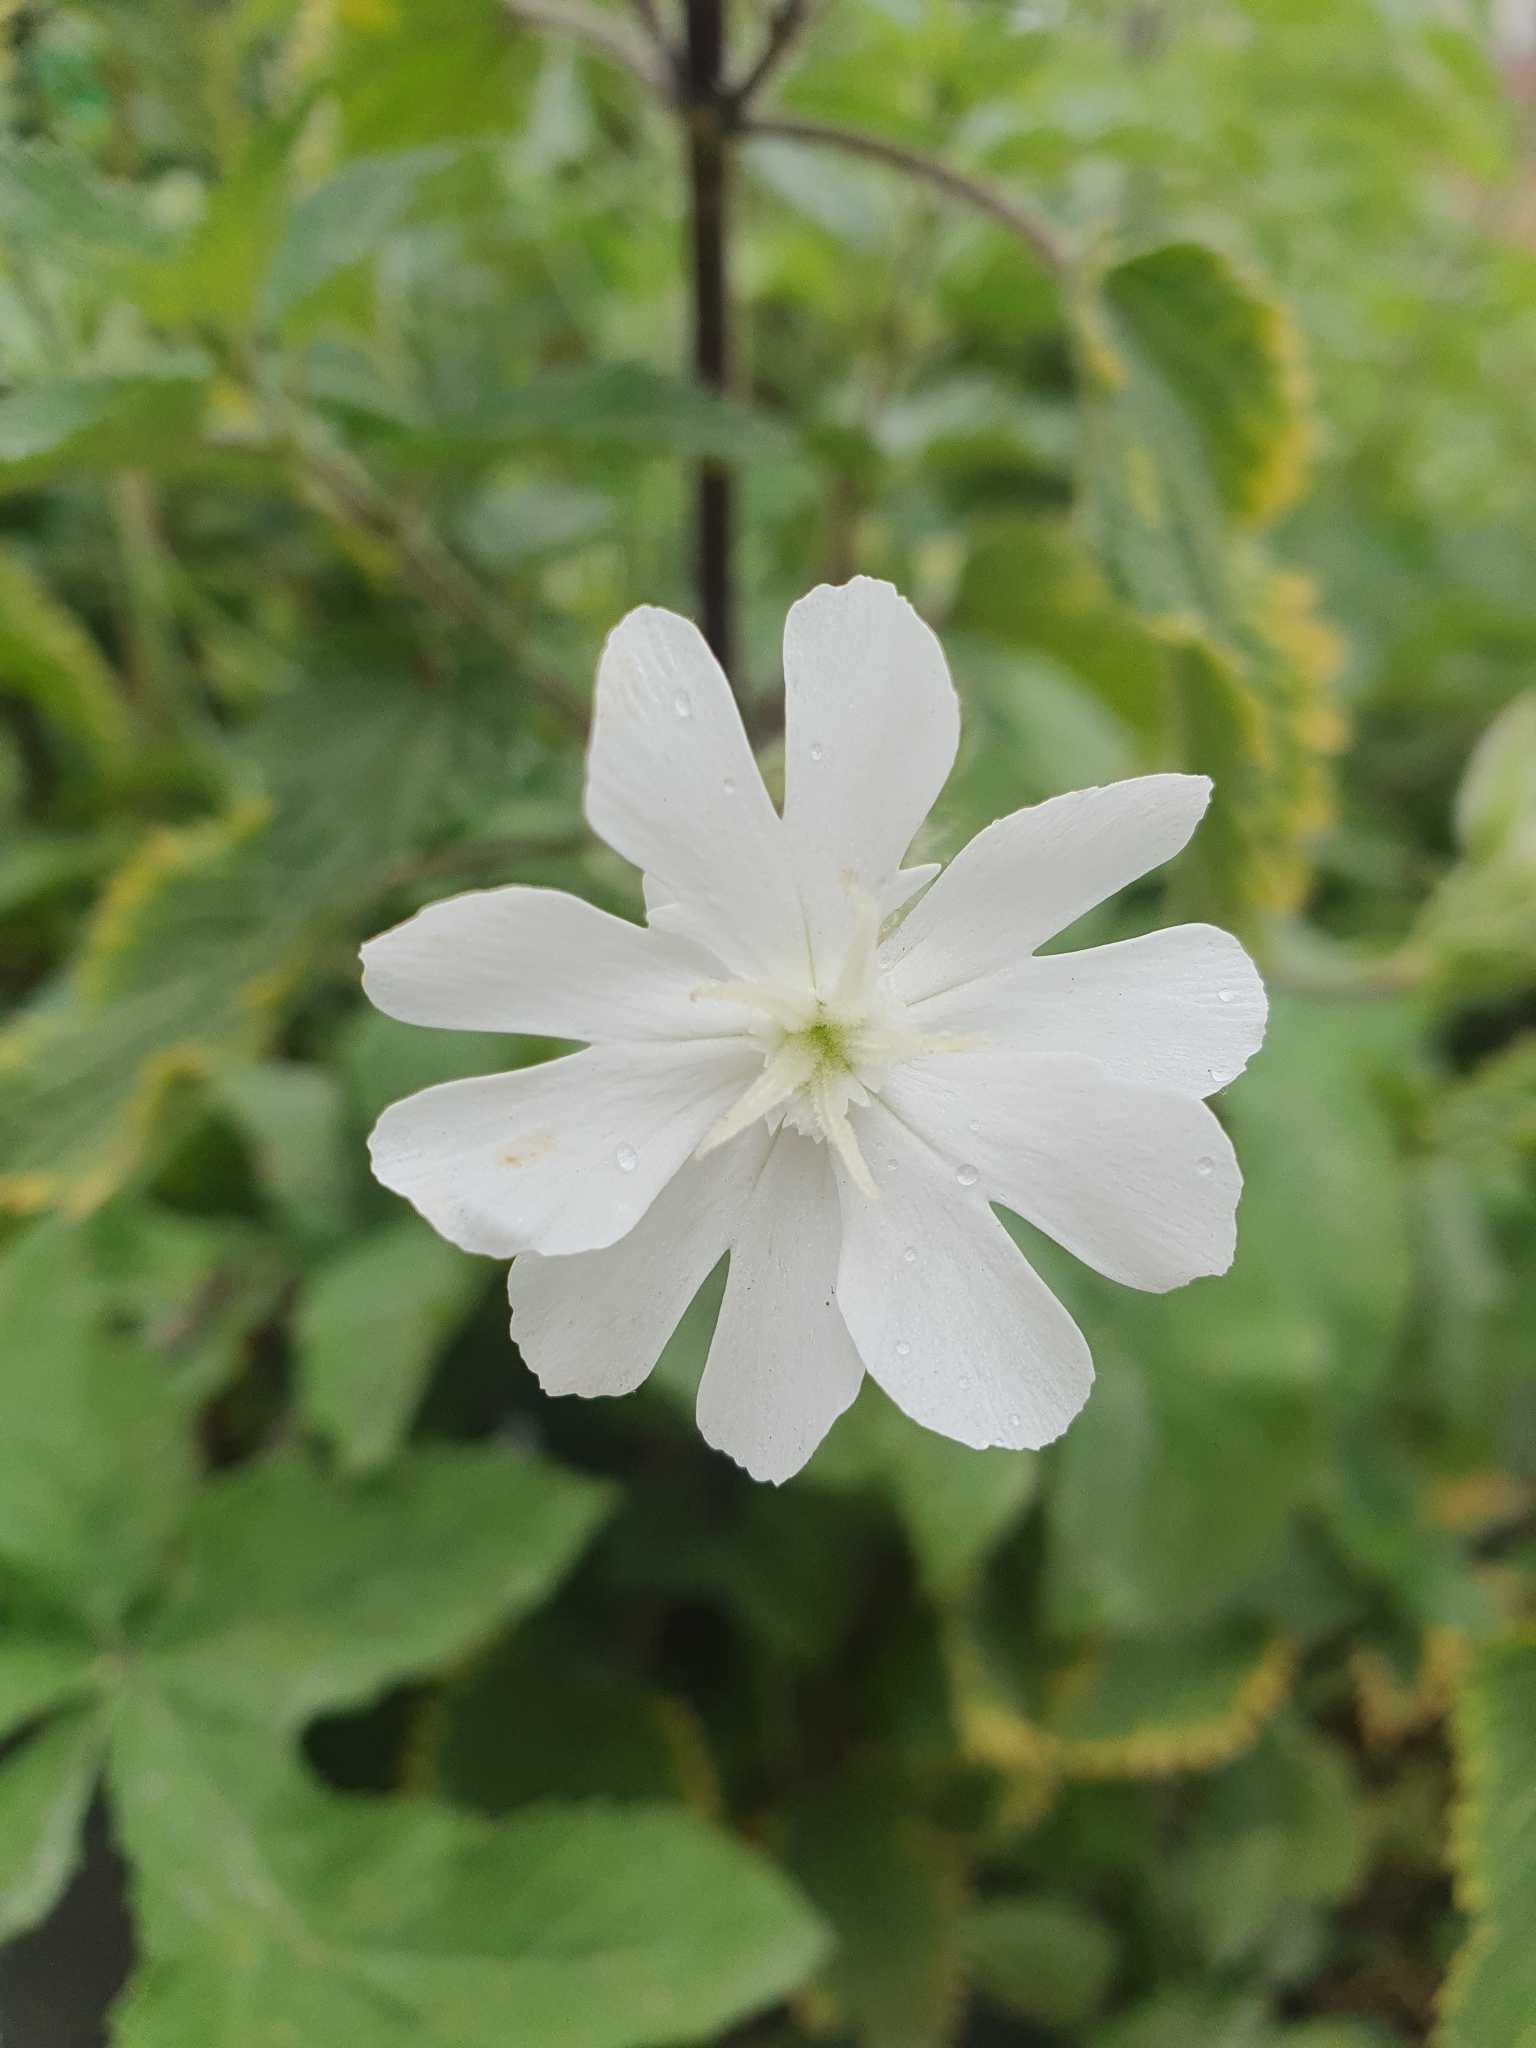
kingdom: Plantae
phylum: Tracheophyta
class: Magnoliopsida
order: Caryophyllales
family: Caryophyllaceae
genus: Silene
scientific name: Silene latifolia
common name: White campion
